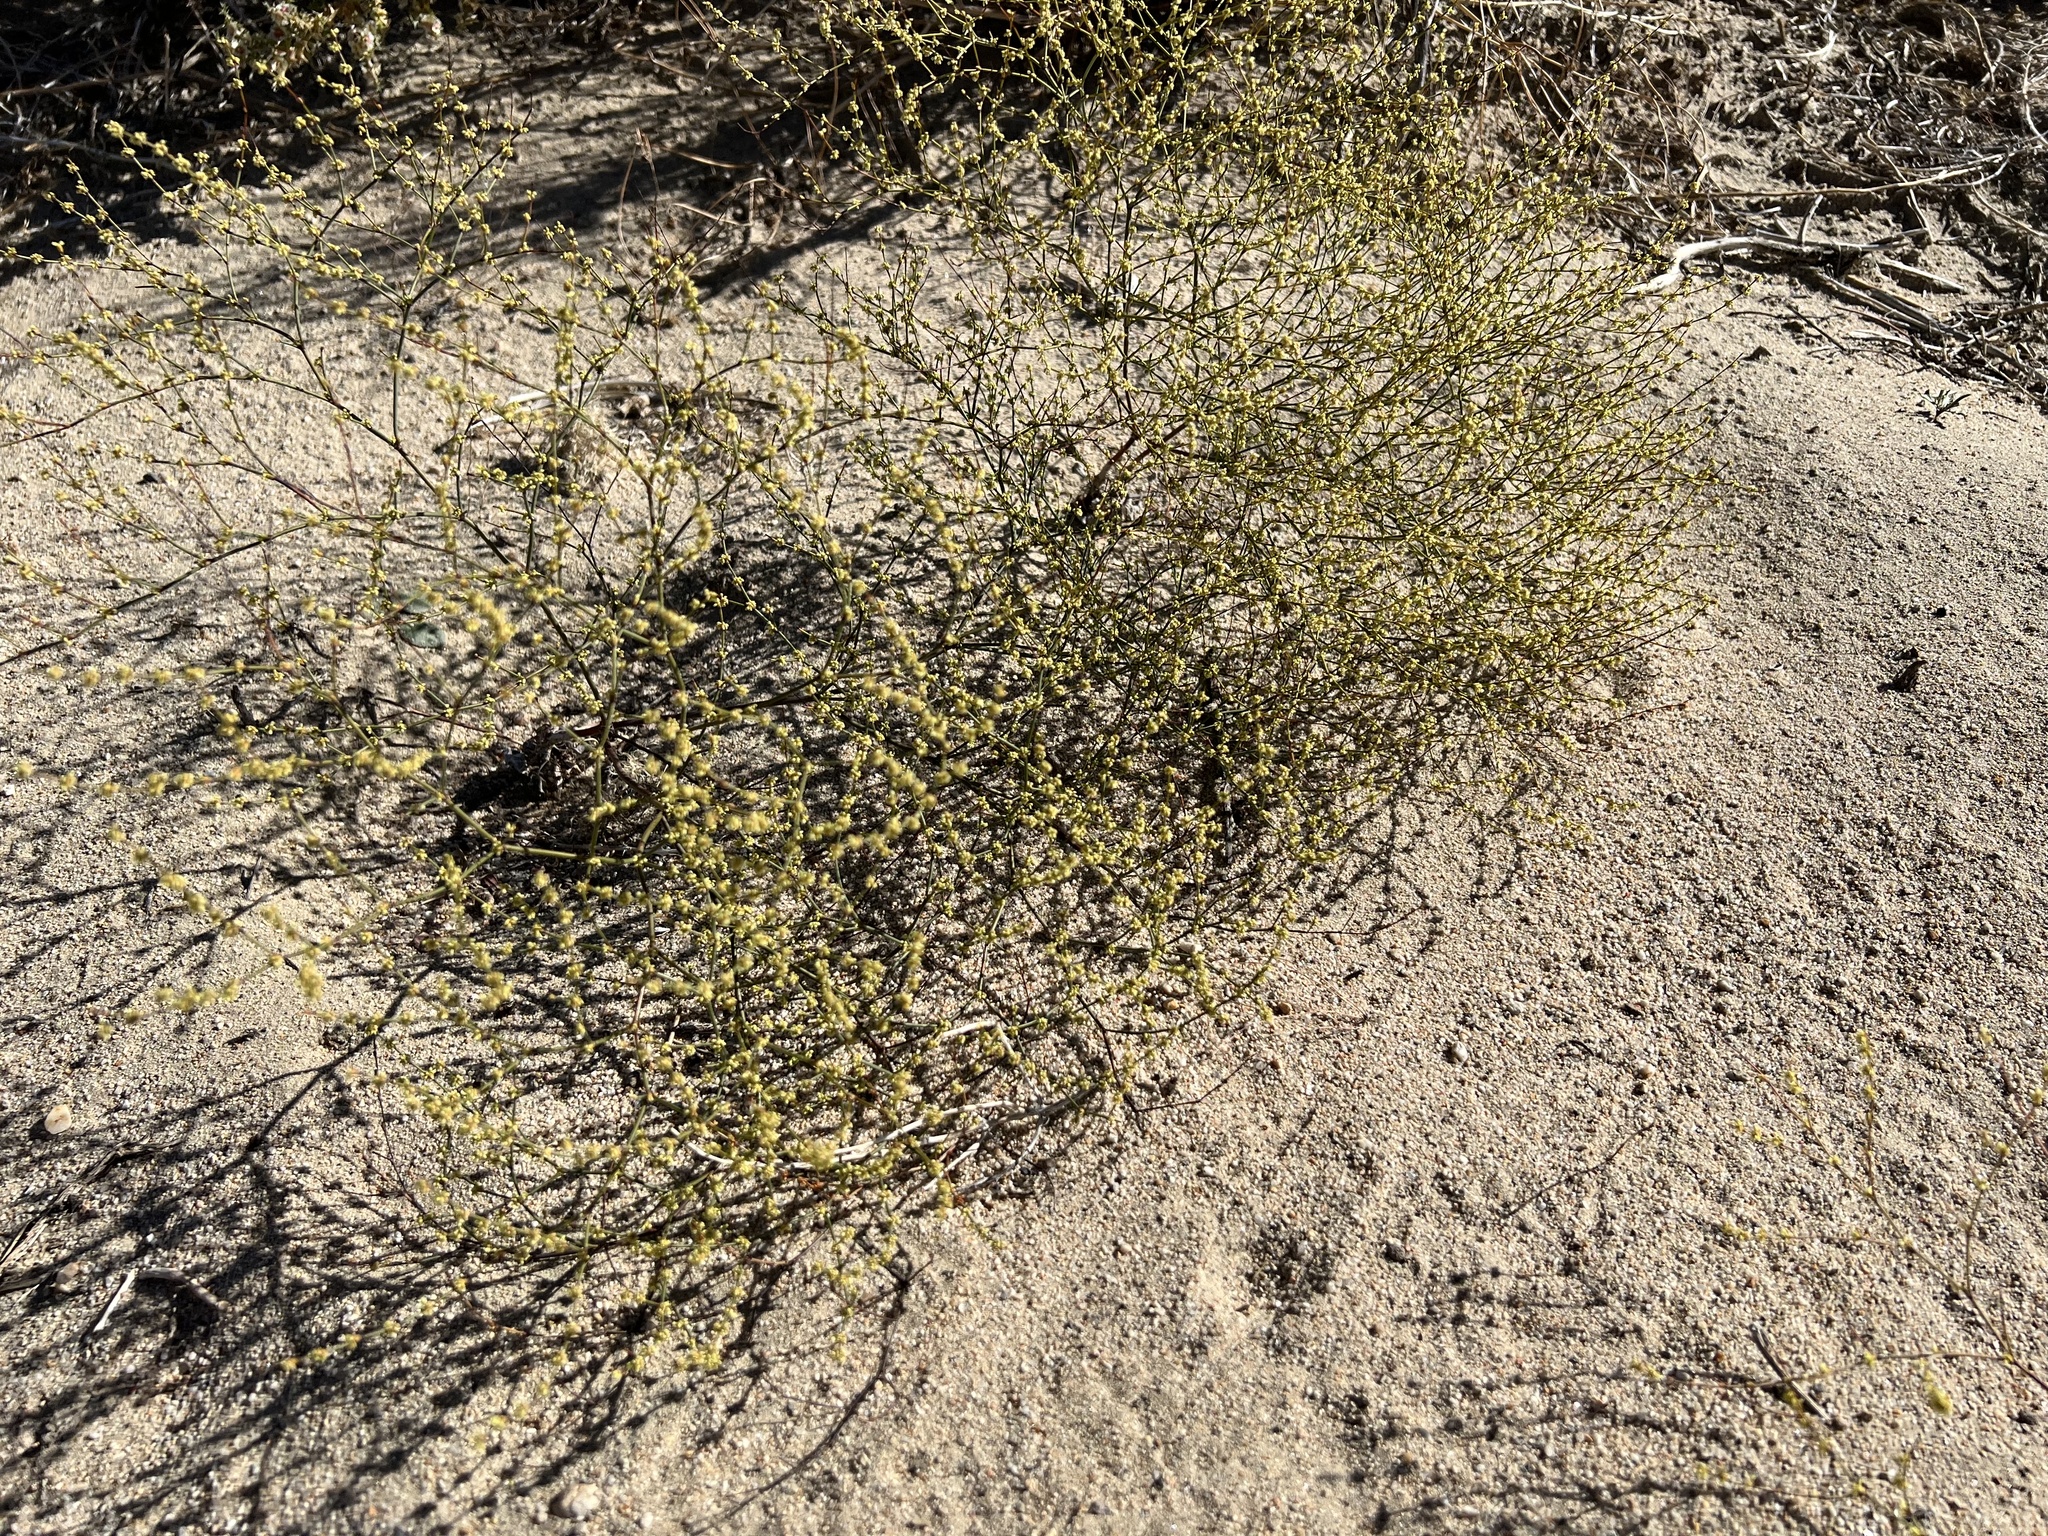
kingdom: Plantae
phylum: Tracheophyta
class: Magnoliopsida
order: Caryophyllales
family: Polygonaceae
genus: Eriogonum
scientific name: Eriogonum brachyanthum
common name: Short-flower wild buckwheat
